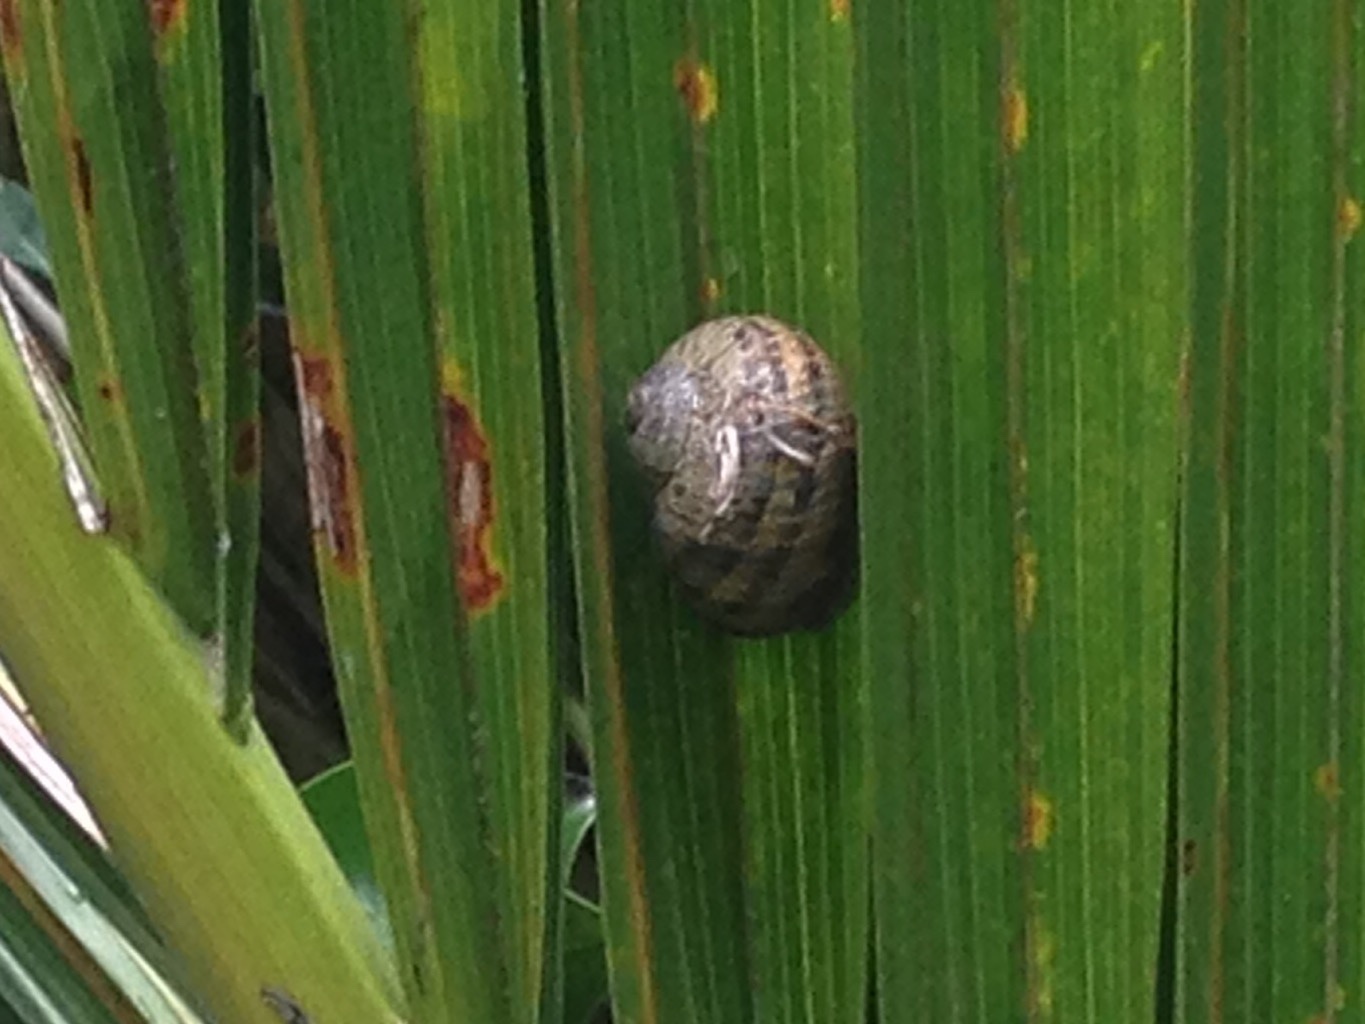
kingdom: Animalia
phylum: Mollusca
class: Gastropoda
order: Stylommatophora
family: Helicidae
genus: Cornu
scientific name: Cornu aspersum
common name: Brown garden snail
